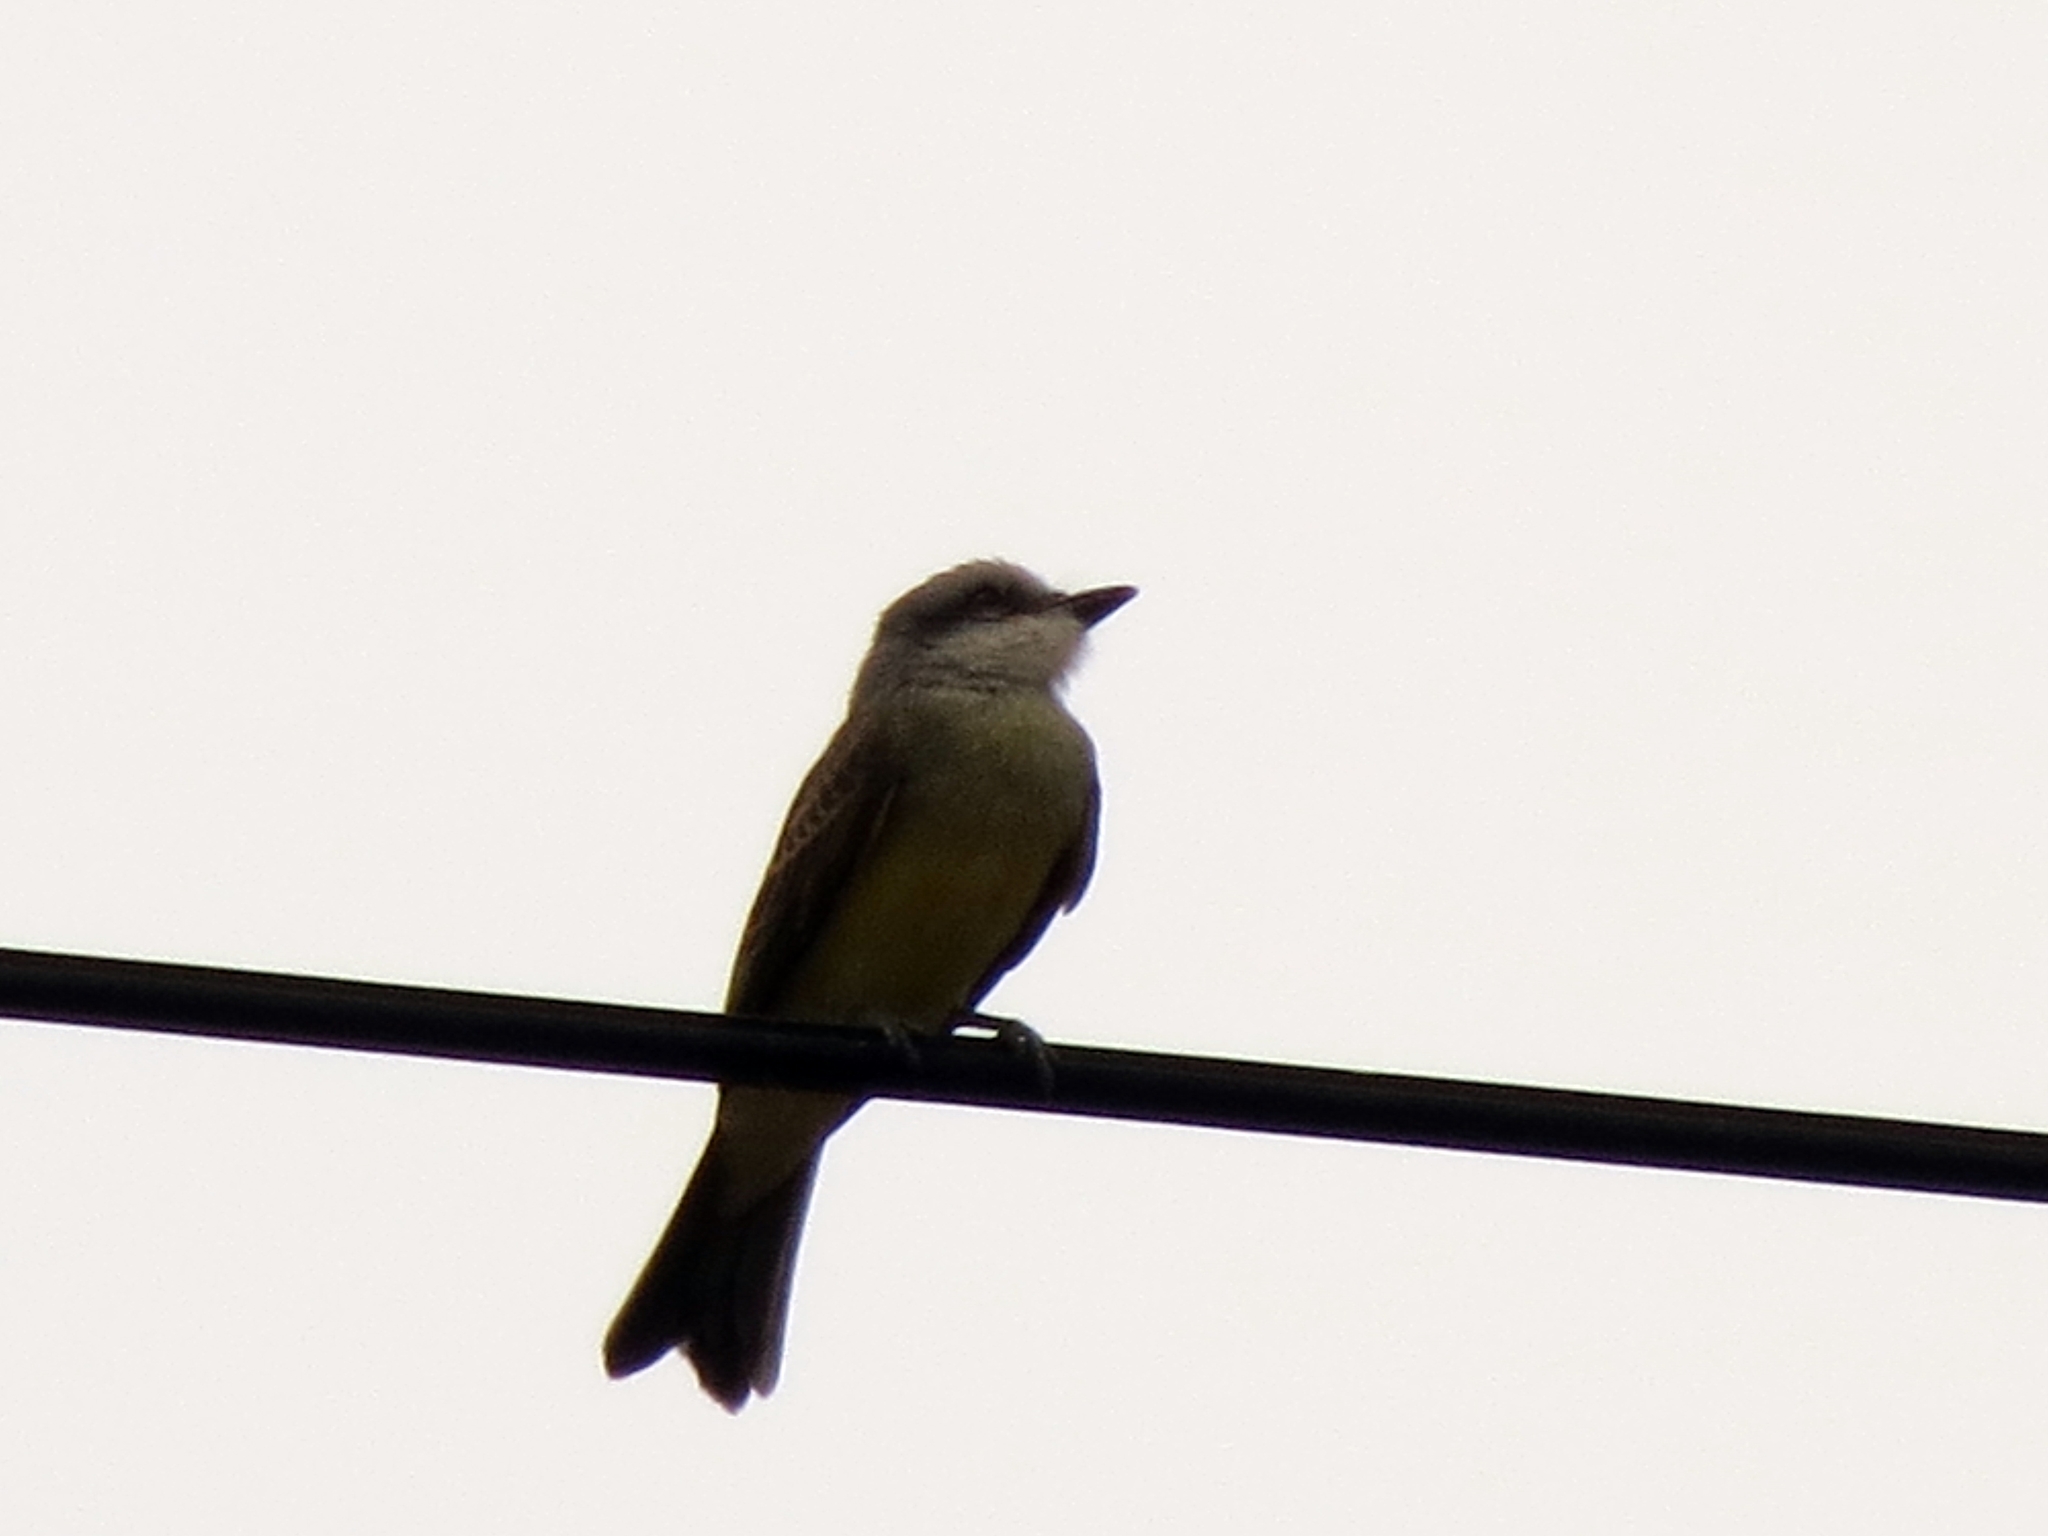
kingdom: Animalia
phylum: Chordata
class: Aves
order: Passeriformes
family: Tyrannidae
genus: Tyrannus
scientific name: Tyrannus melancholicus
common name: Tropical kingbird
